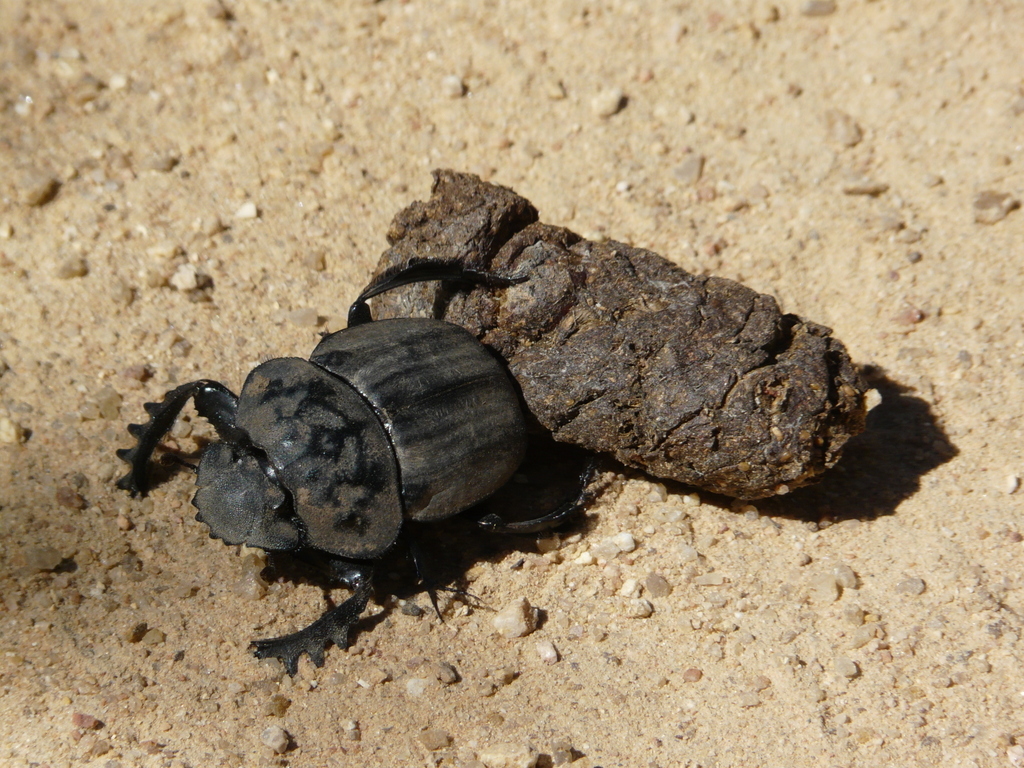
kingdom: Animalia
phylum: Arthropoda
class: Insecta
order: Coleoptera
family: Scarabaeidae
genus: Pachylomera
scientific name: Pachylomera femoralis
